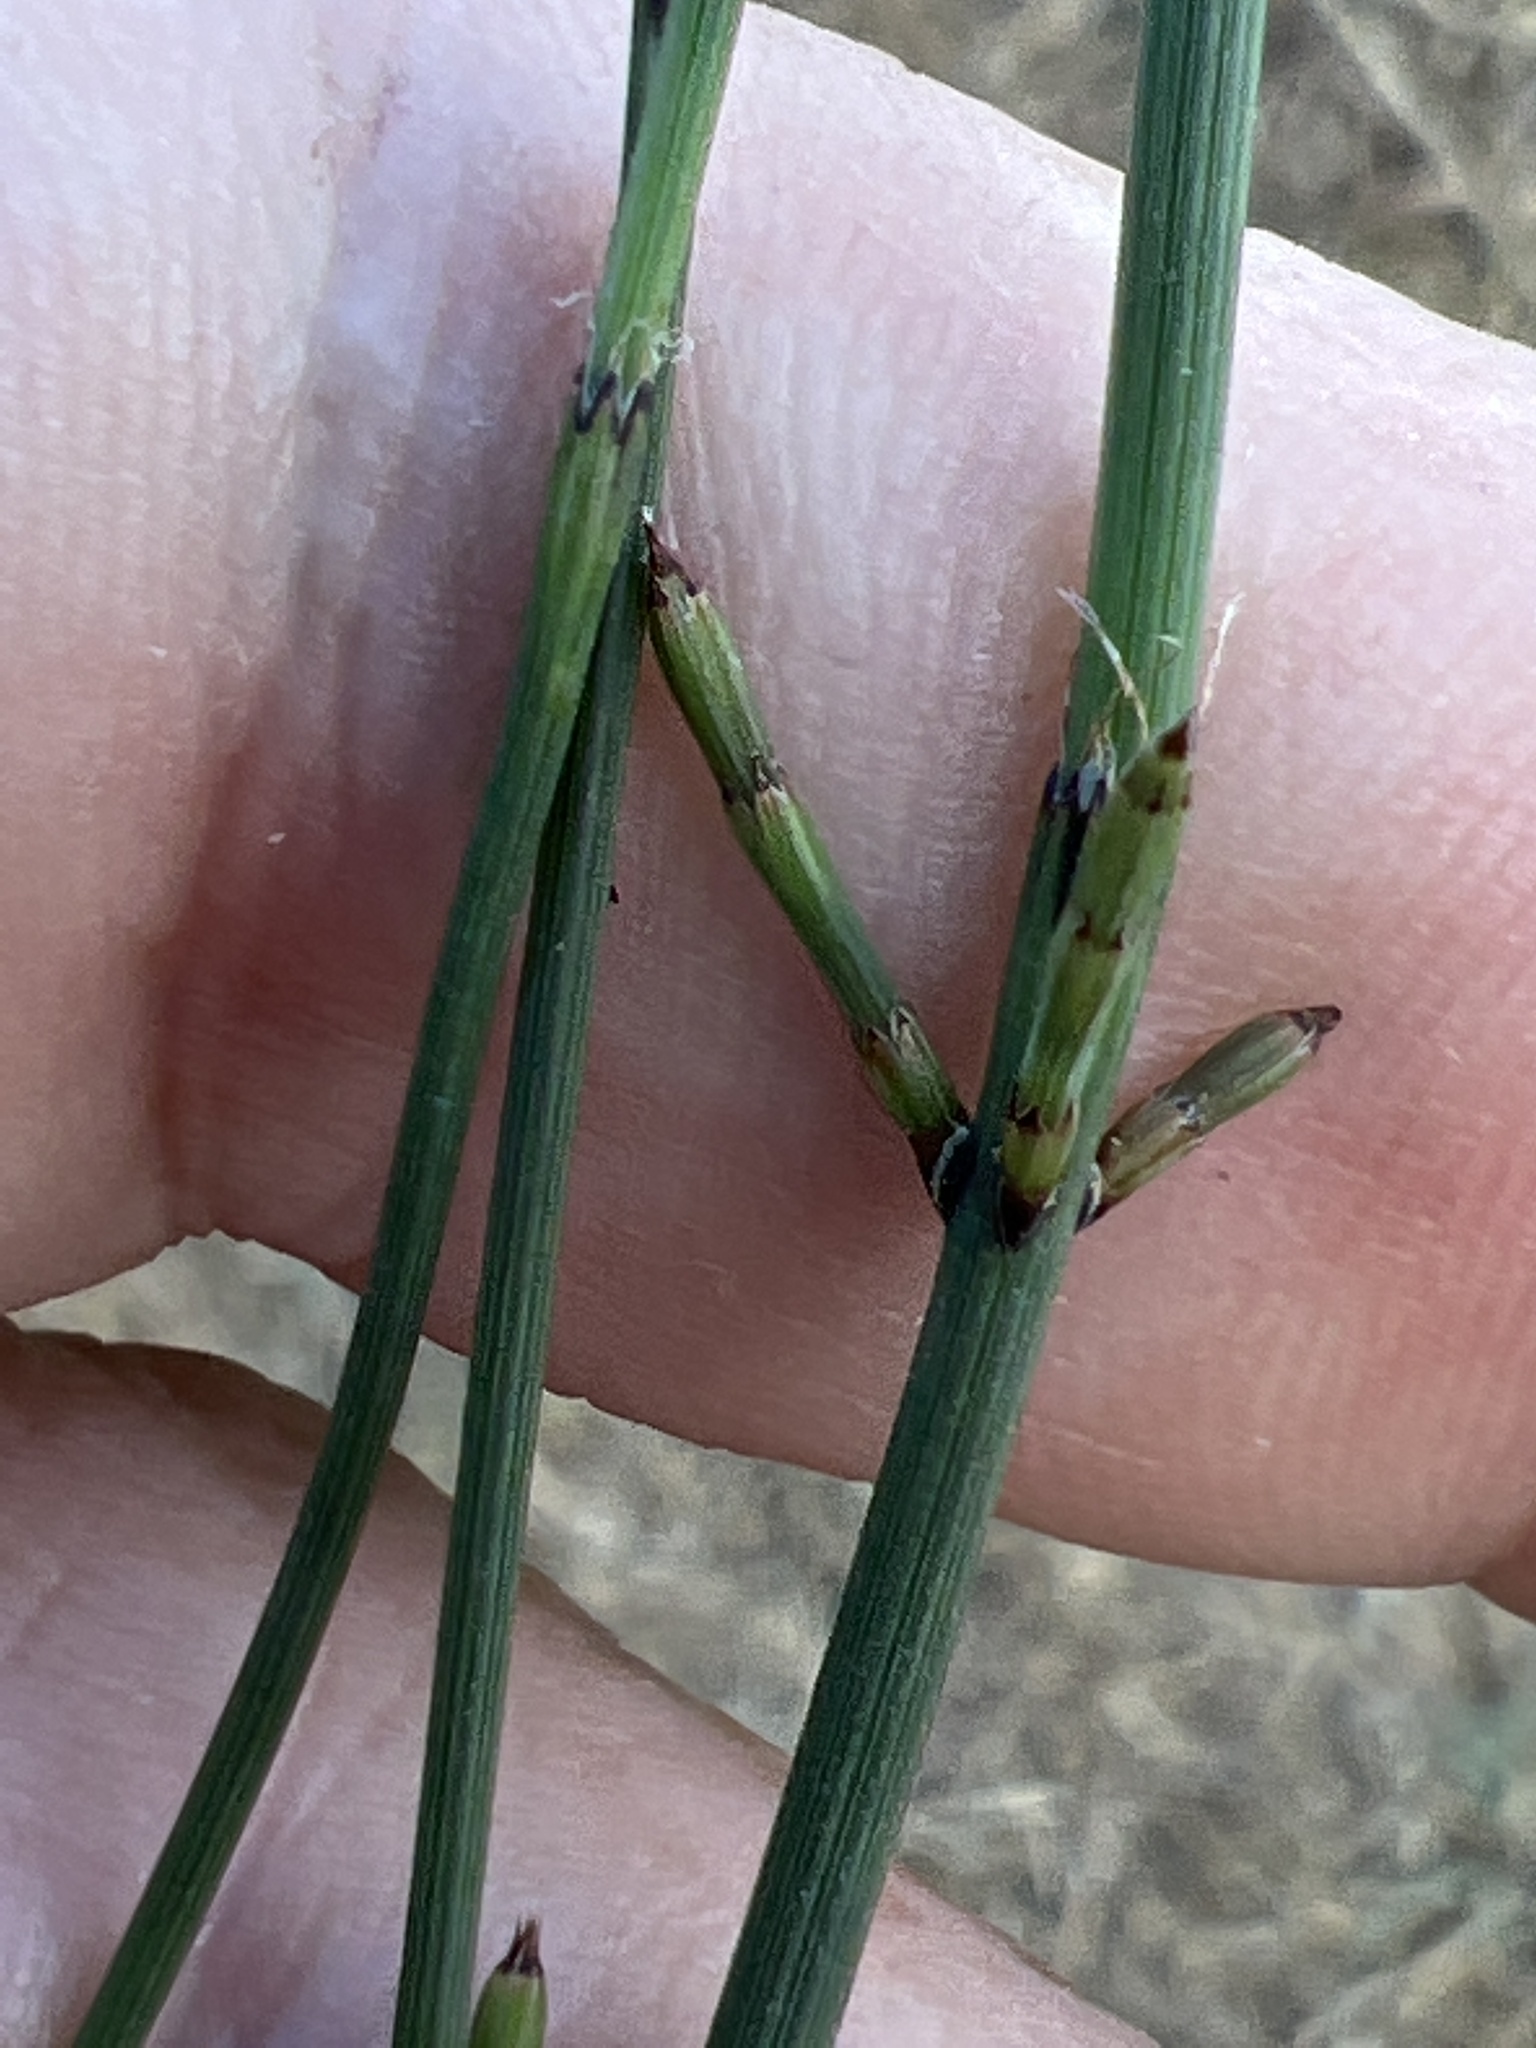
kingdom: Plantae
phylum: Tracheophyta
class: Polypodiopsida
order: Equisetales
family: Equisetaceae
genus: Equisetum
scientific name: Equisetum ramosissimum
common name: Branched horsetail
